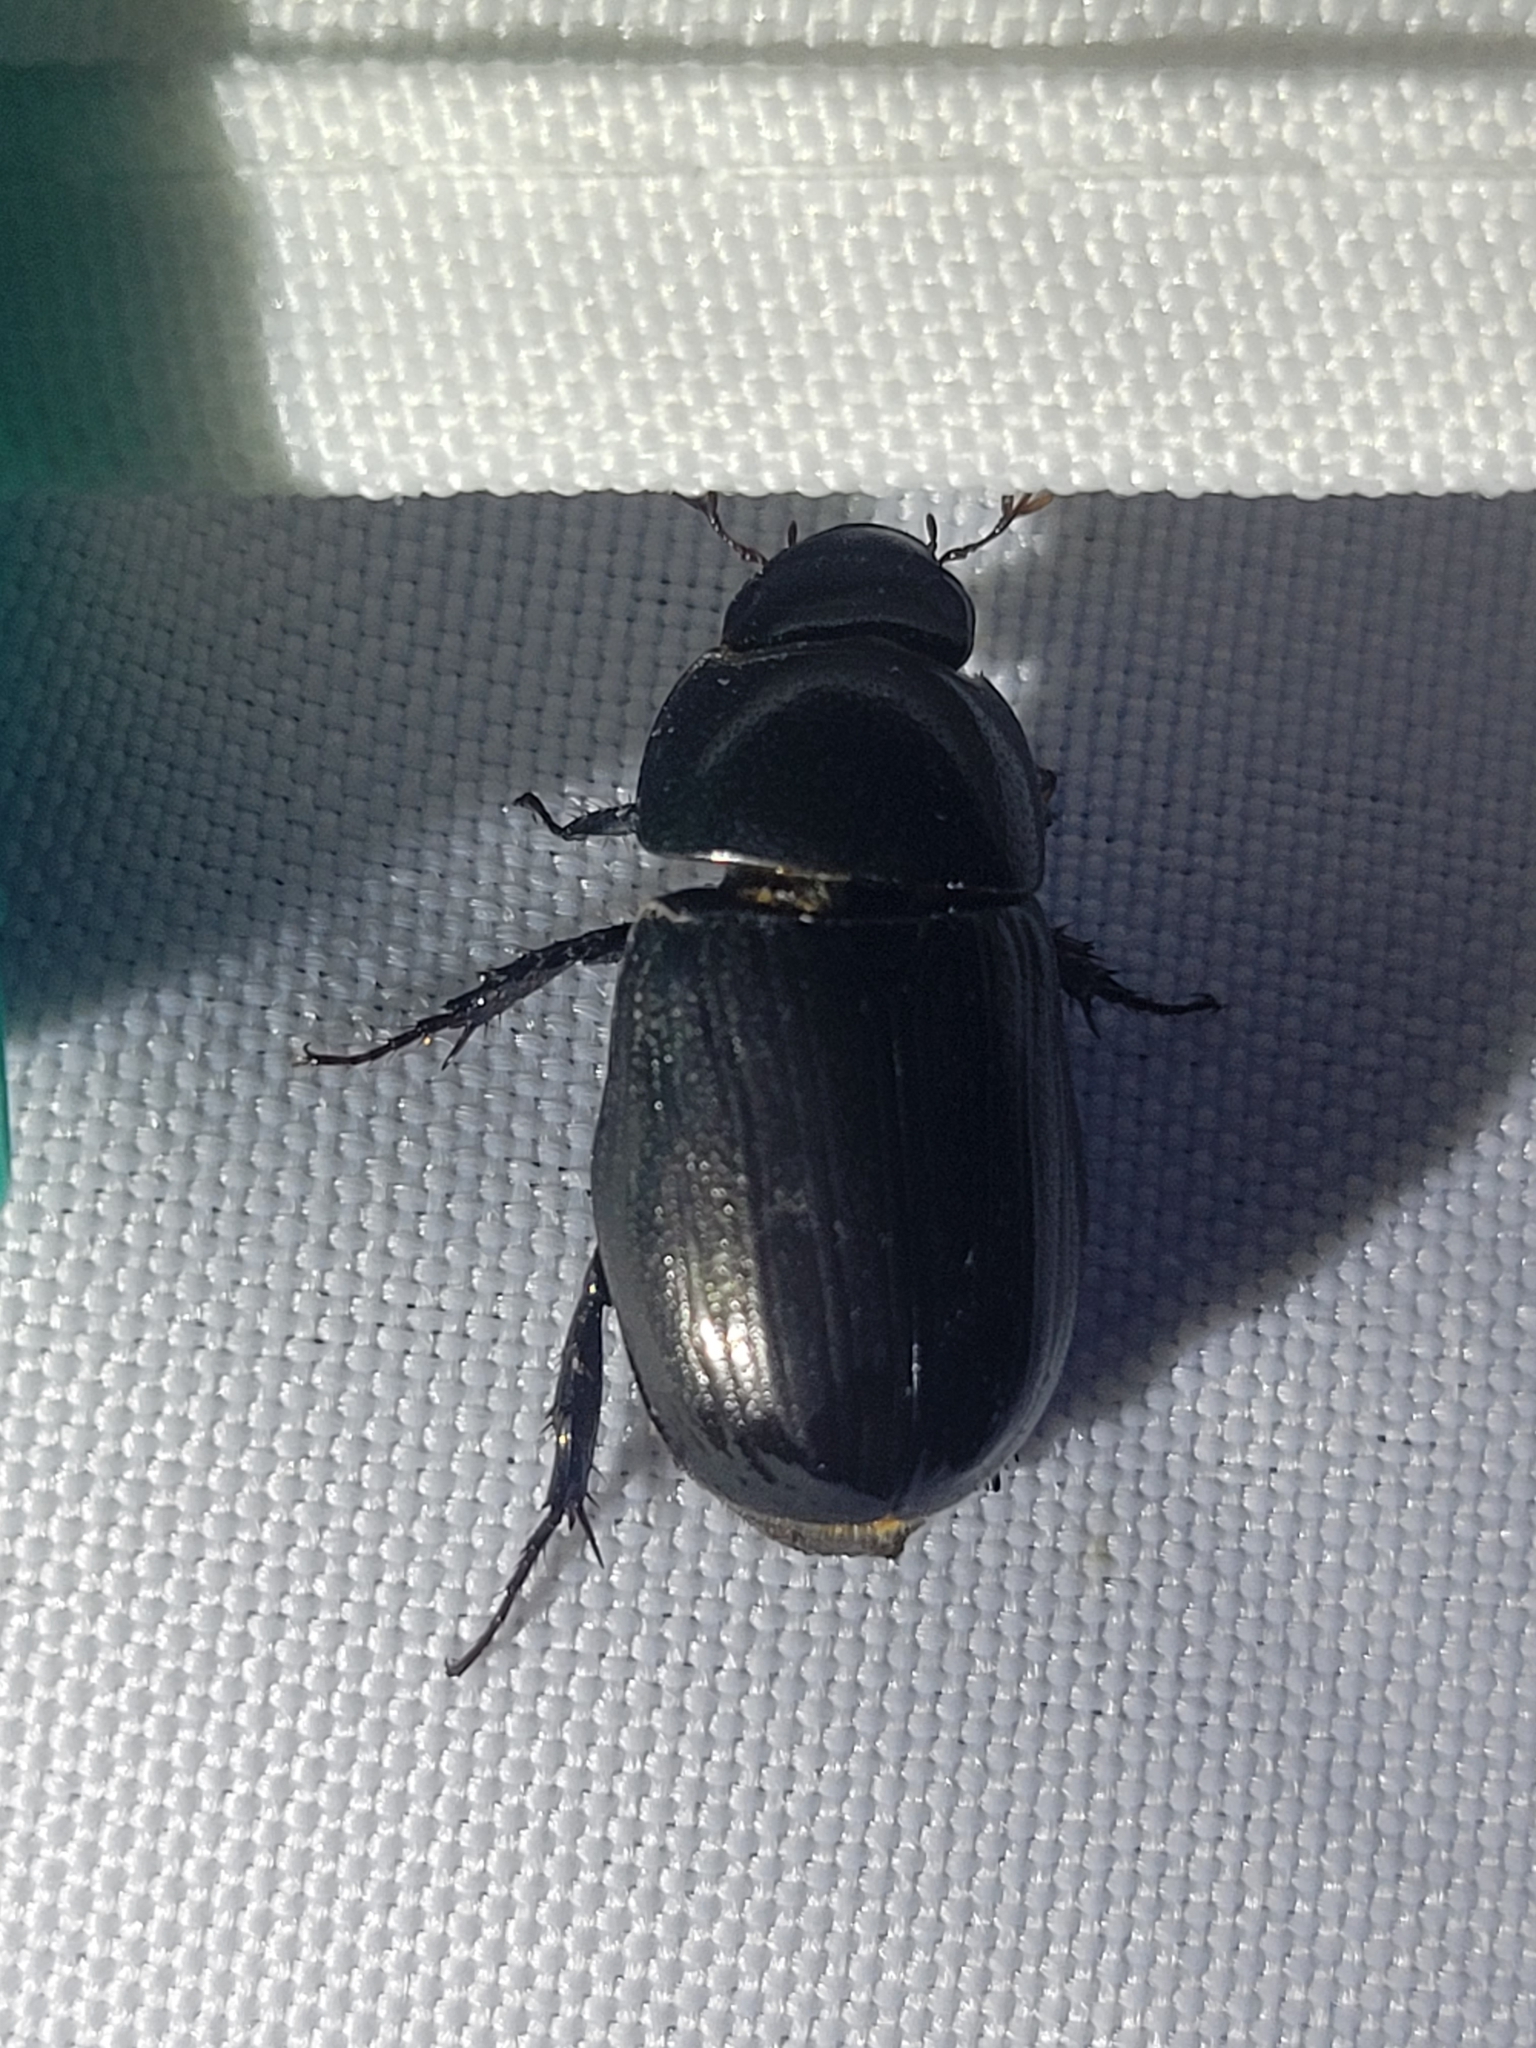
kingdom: Animalia
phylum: Arthropoda
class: Insecta
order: Coleoptera
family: Scarabaeidae
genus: Dyscinetus
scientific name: Dyscinetus morator
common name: Rice beetle
